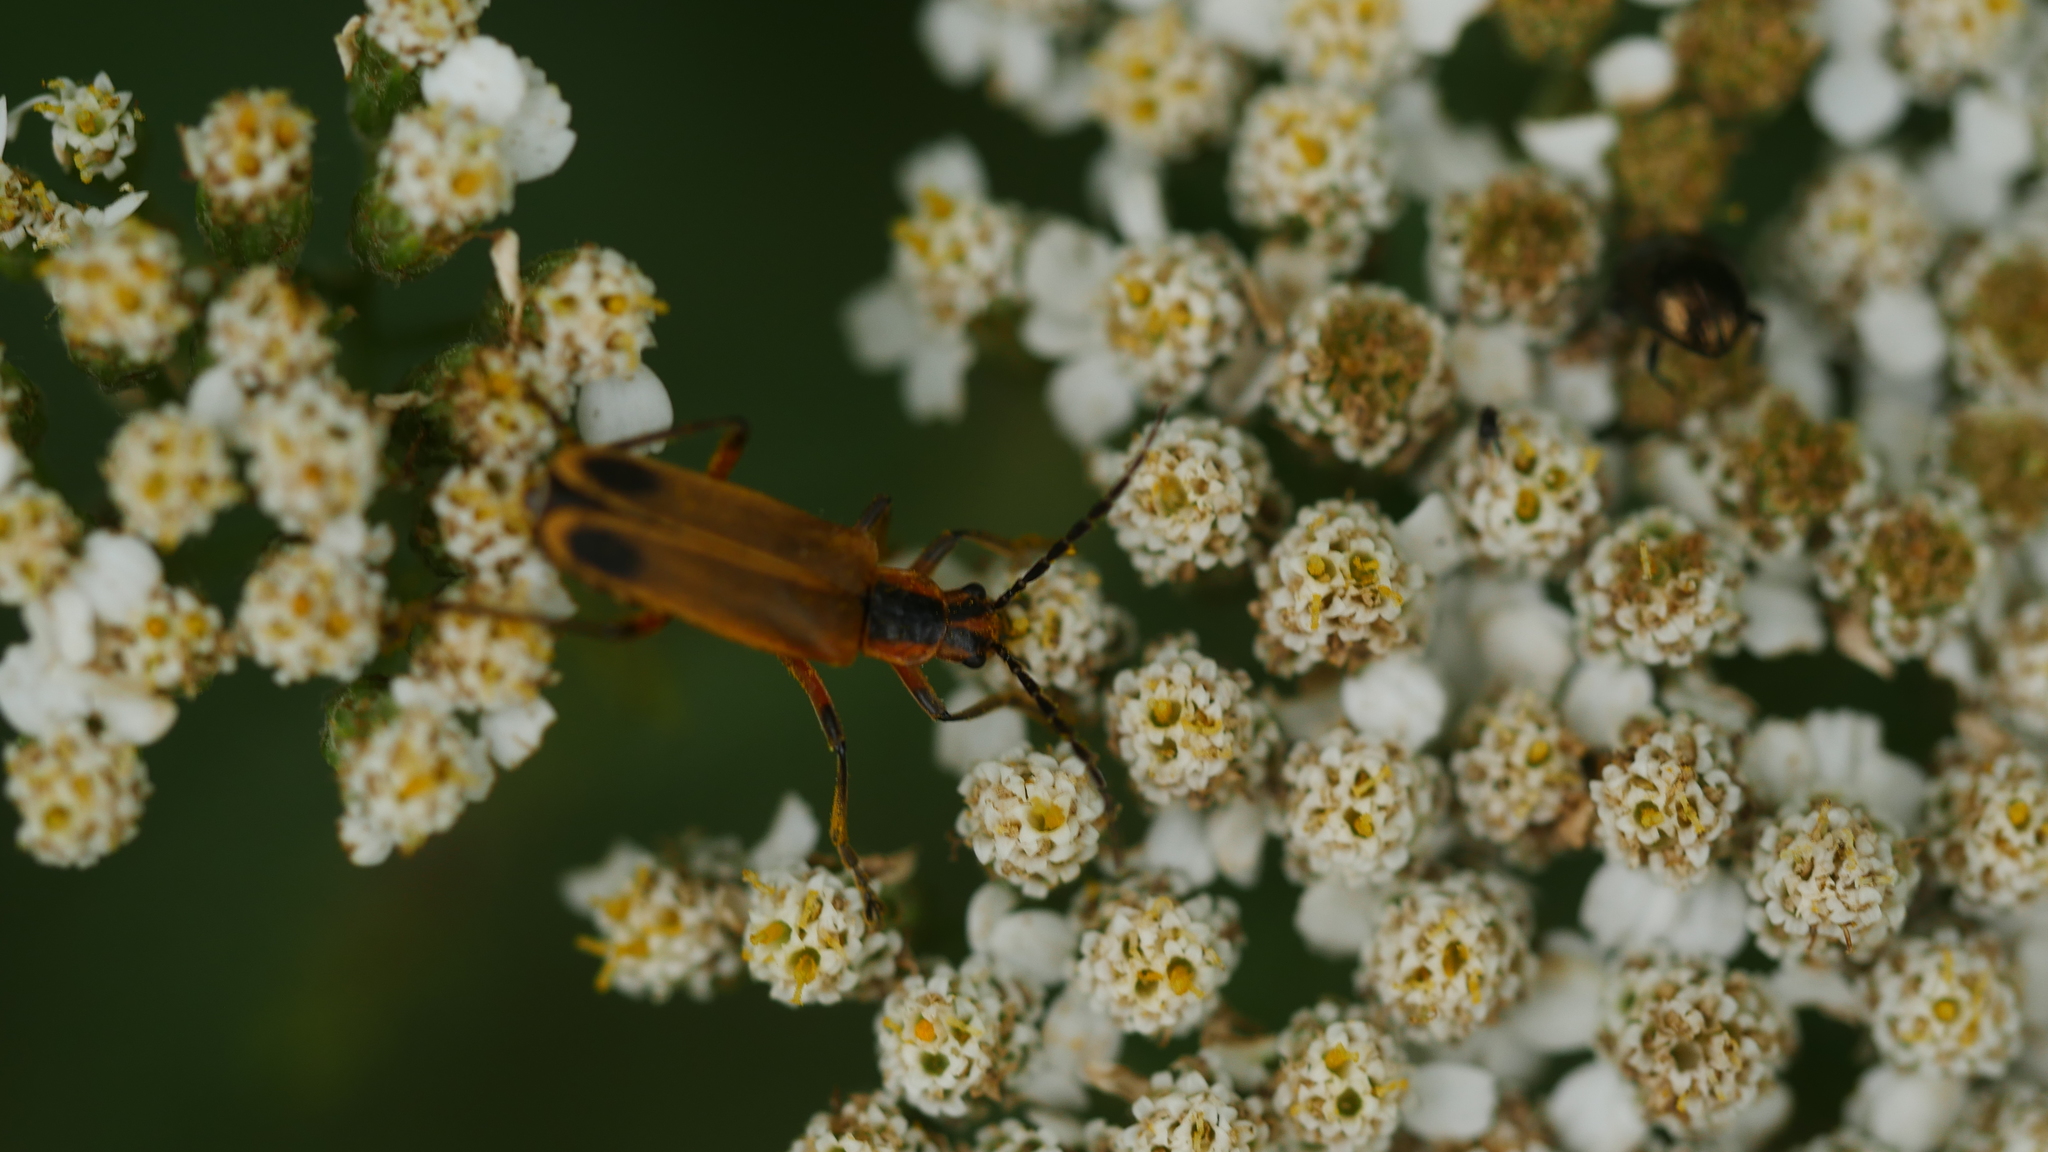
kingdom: Animalia
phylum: Arthropoda
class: Insecta
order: Coleoptera
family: Cantharidae
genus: Chauliognathus
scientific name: Chauliognathus marginatus
